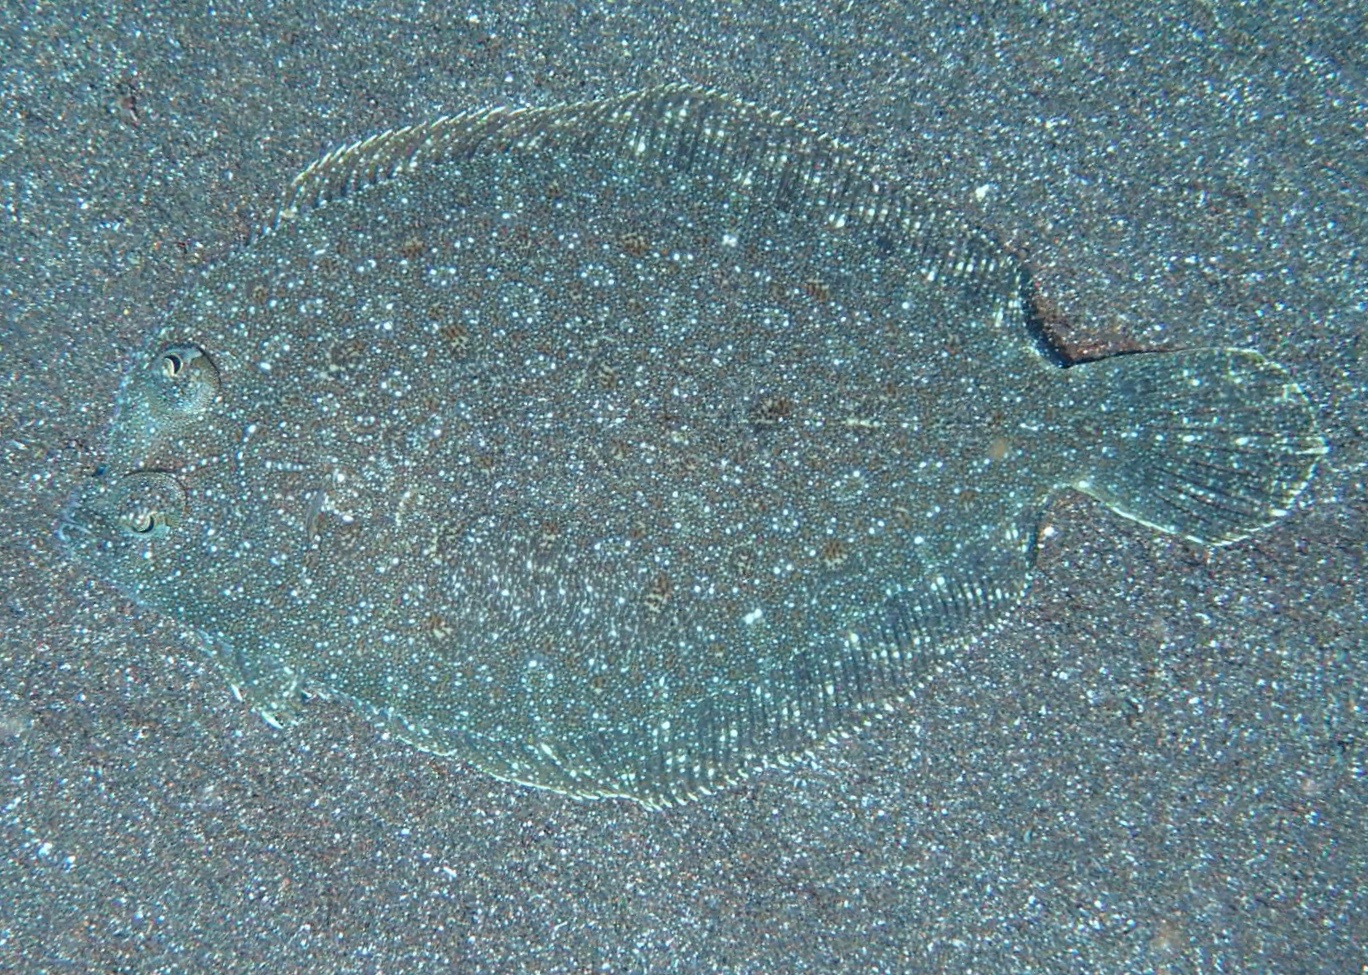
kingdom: Animalia
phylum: Chordata
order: Pleuronectiformes
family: Bothidae
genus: Bothus
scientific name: Bothus podas
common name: Wide-eyed flounder
